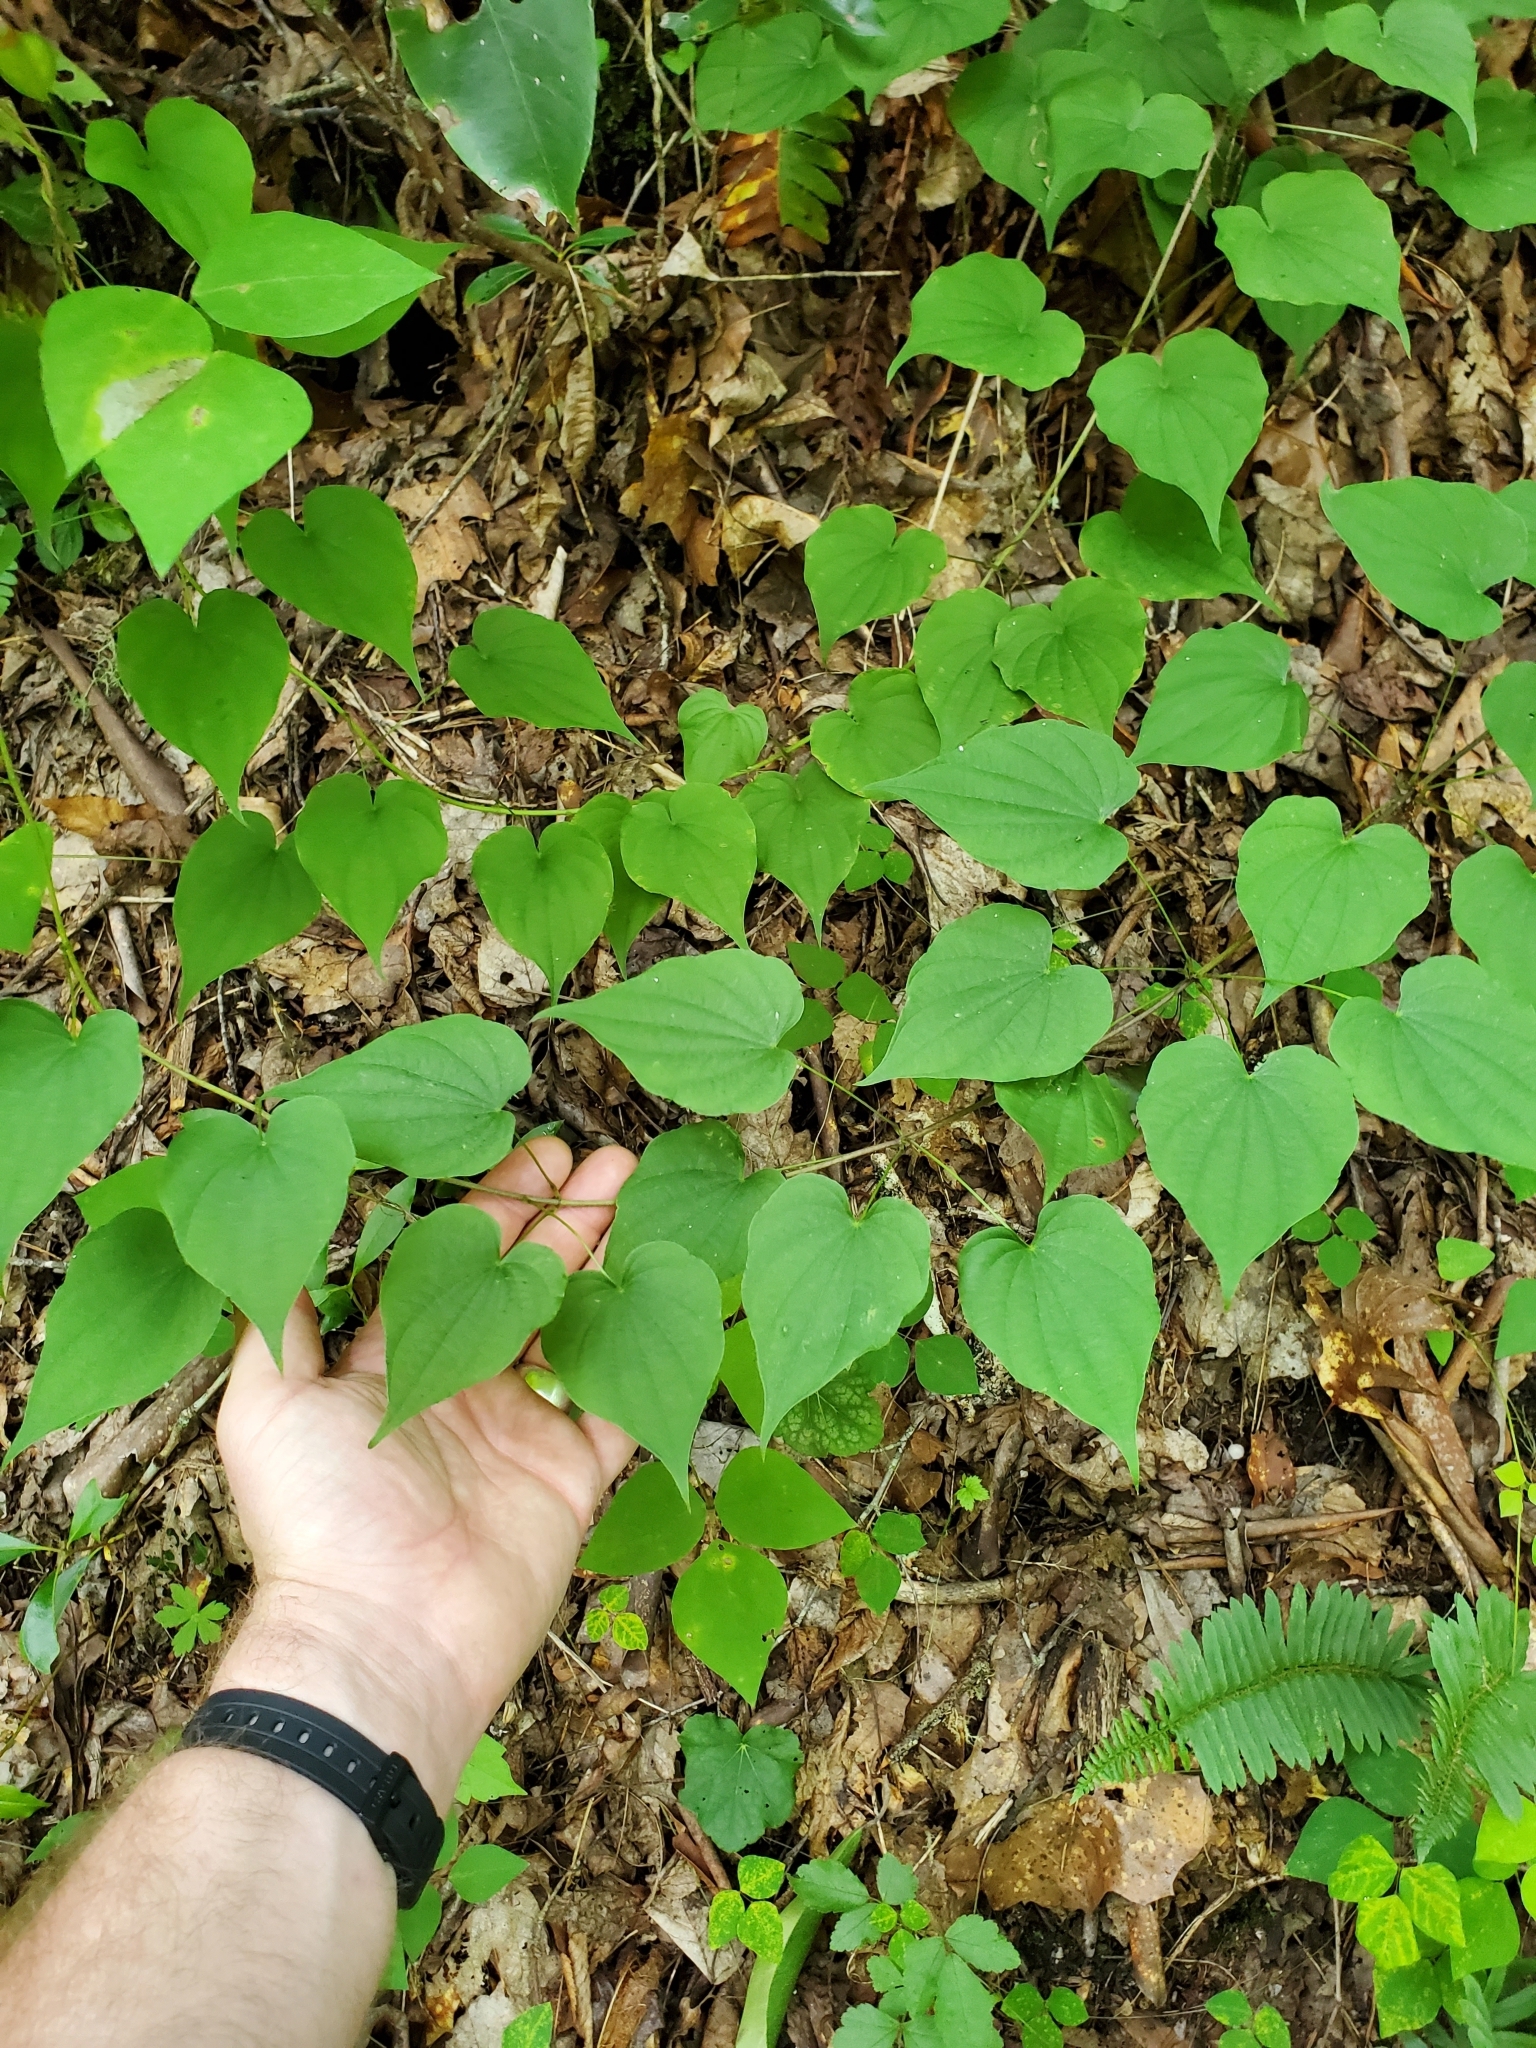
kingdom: Plantae
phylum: Tracheophyta
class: Liliopsida
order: Dioscoreales
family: Dioscoreaceae
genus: Dioscorea
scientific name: Dioscorea villosa
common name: Wild yam
